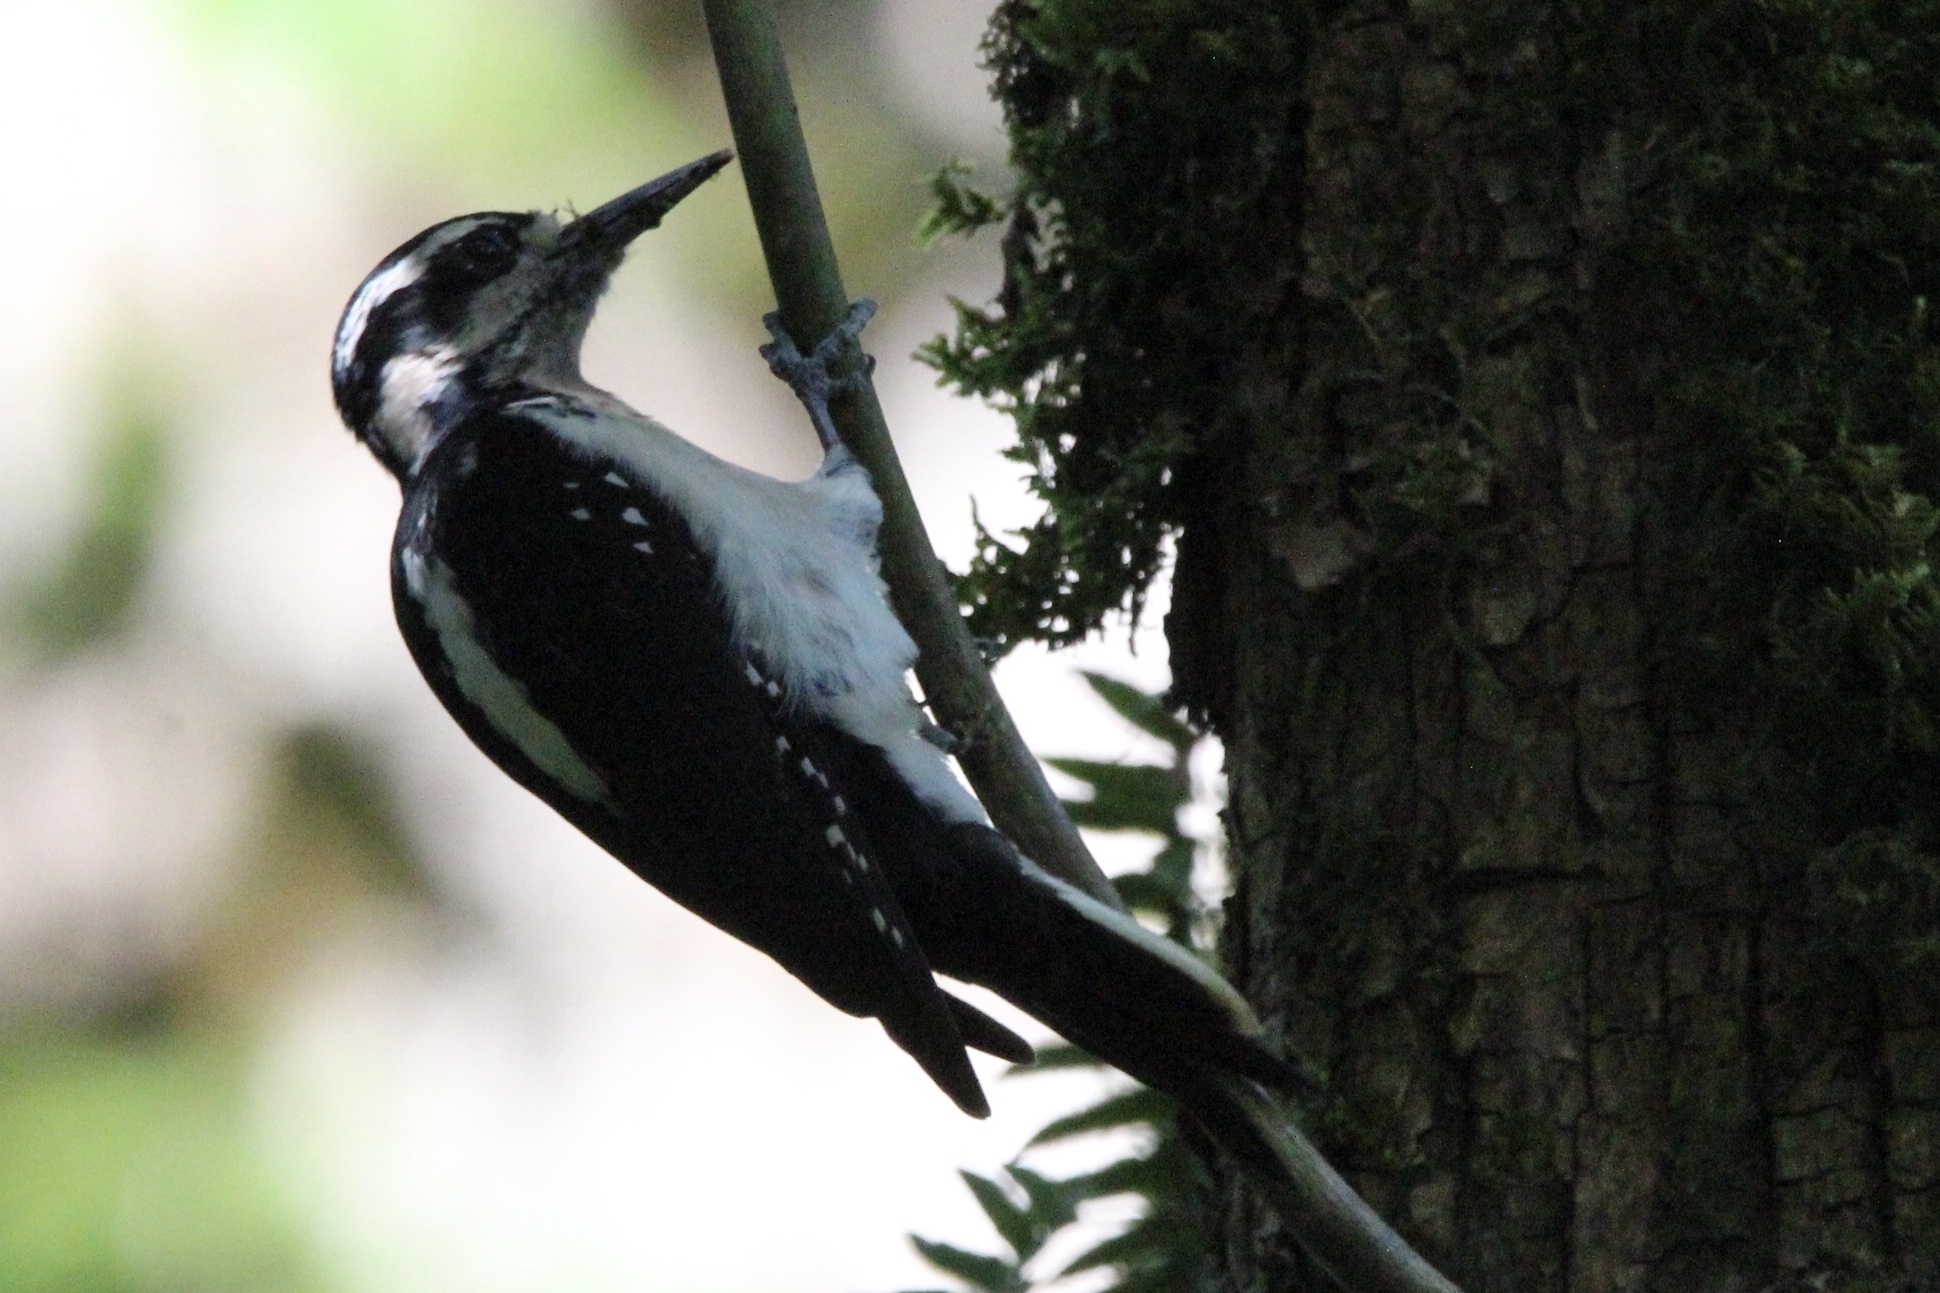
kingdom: Animalia
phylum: Chordata
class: Aves
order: Piciformes
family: Picidae
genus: Leuconotopicus
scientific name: Leuconotopicus villosus
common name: Hairy woodpecker
